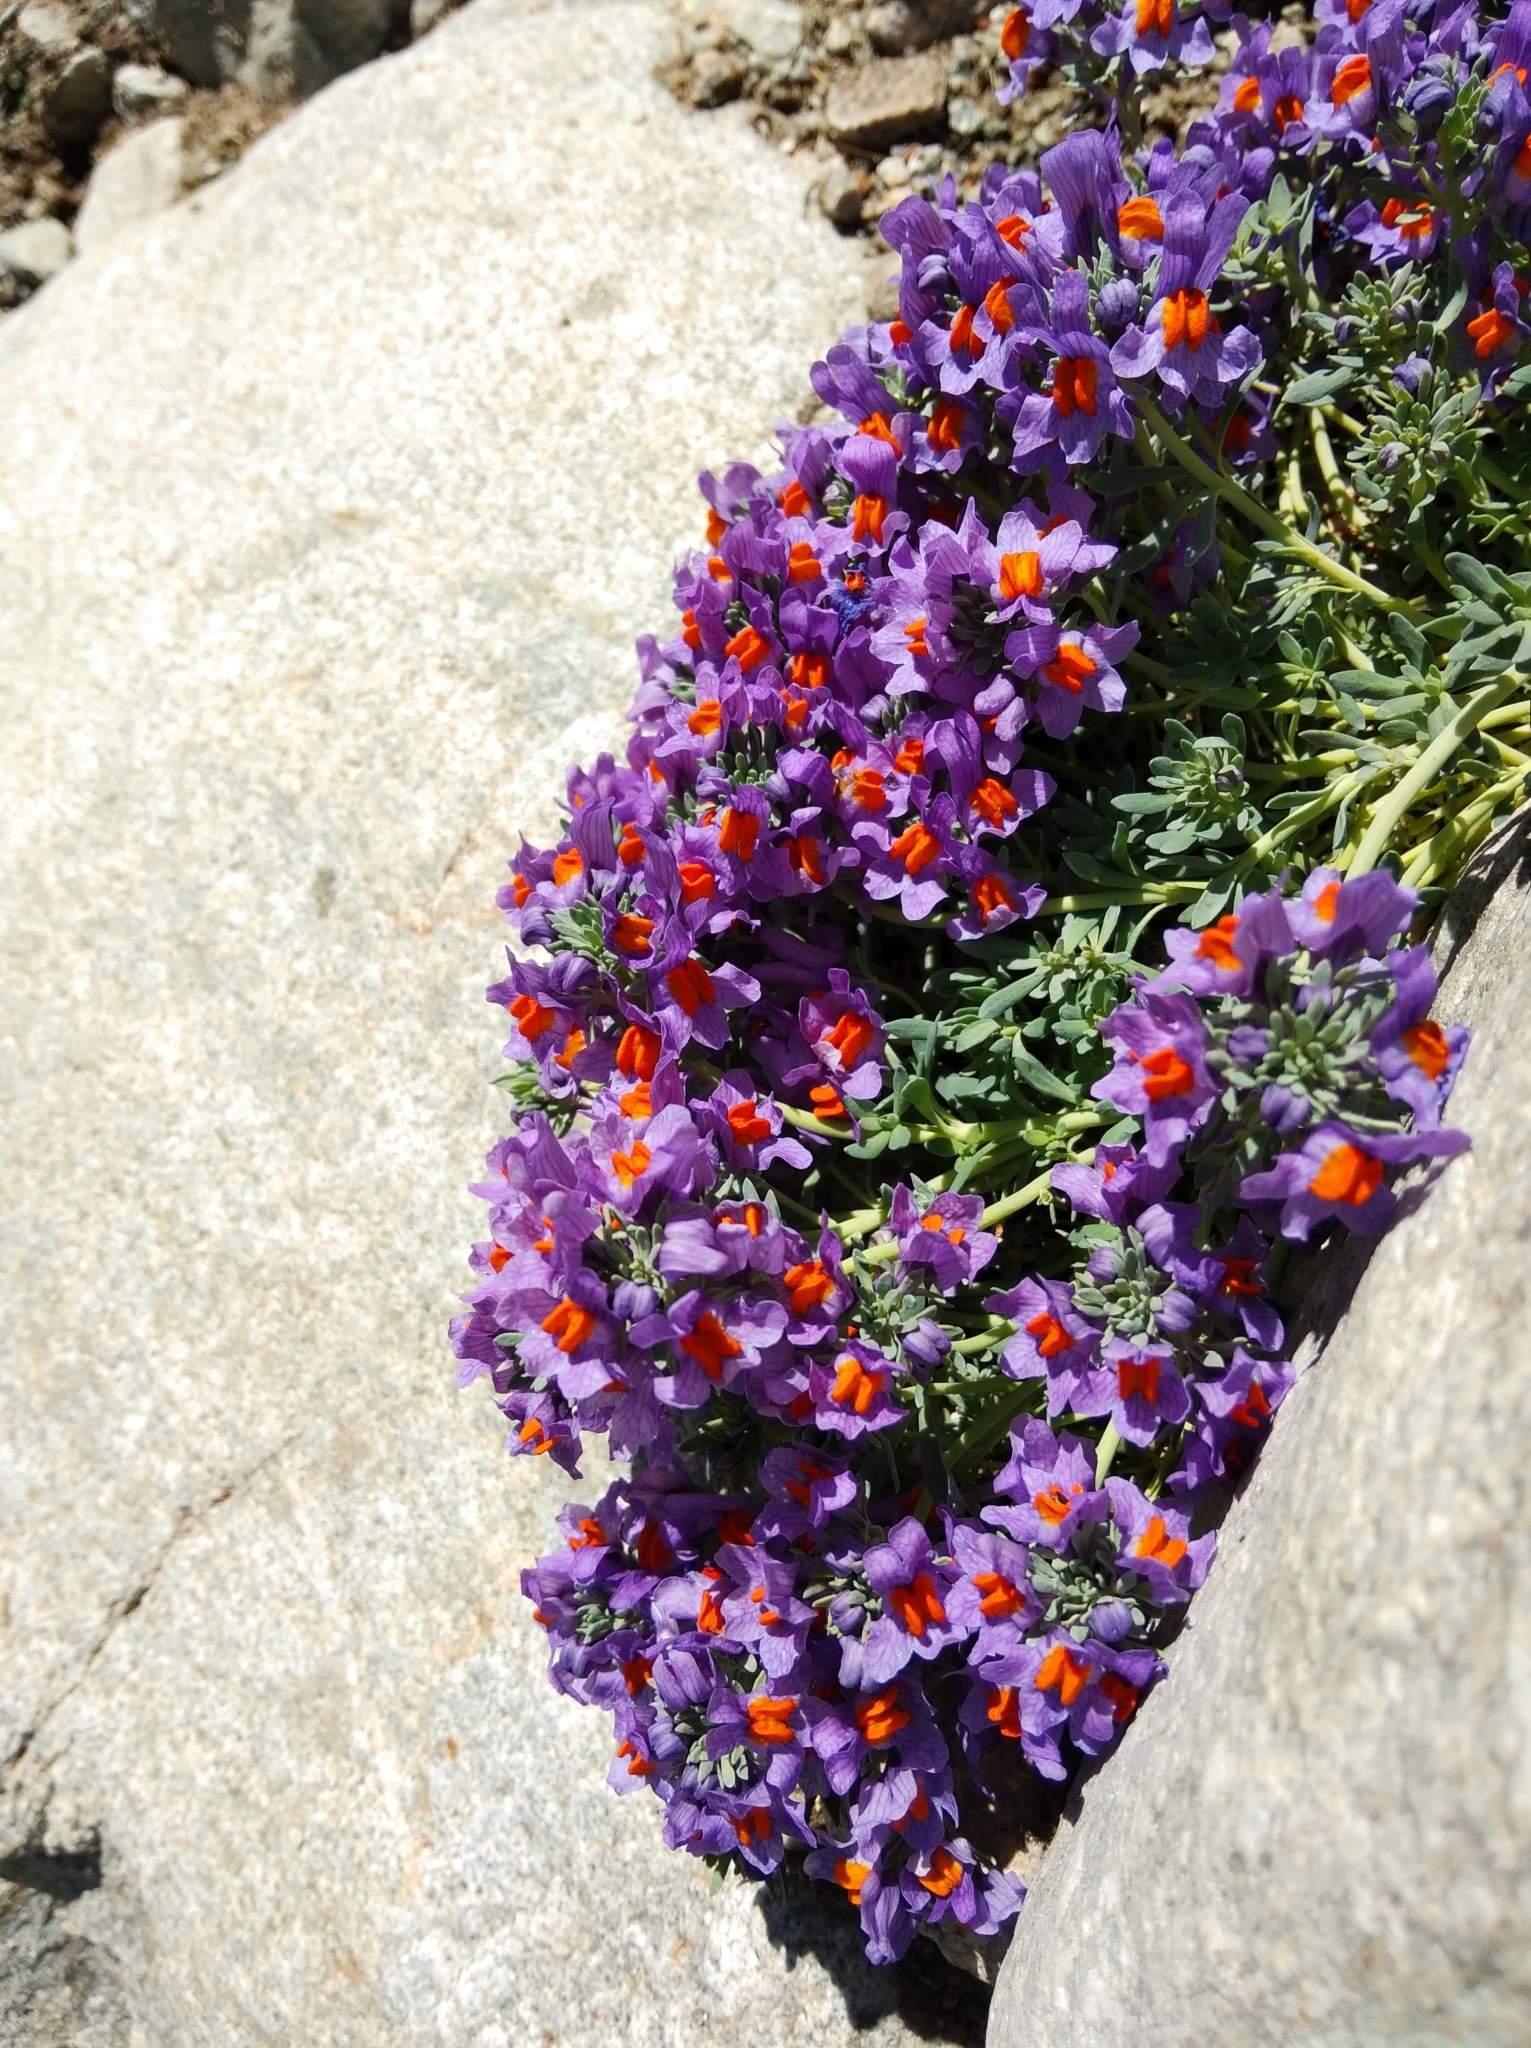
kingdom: Plantae
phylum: Tracheophyta
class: Magnoliopsida
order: Lamiales
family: Plantaginaceae
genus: Linaria
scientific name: Linaria alpina
